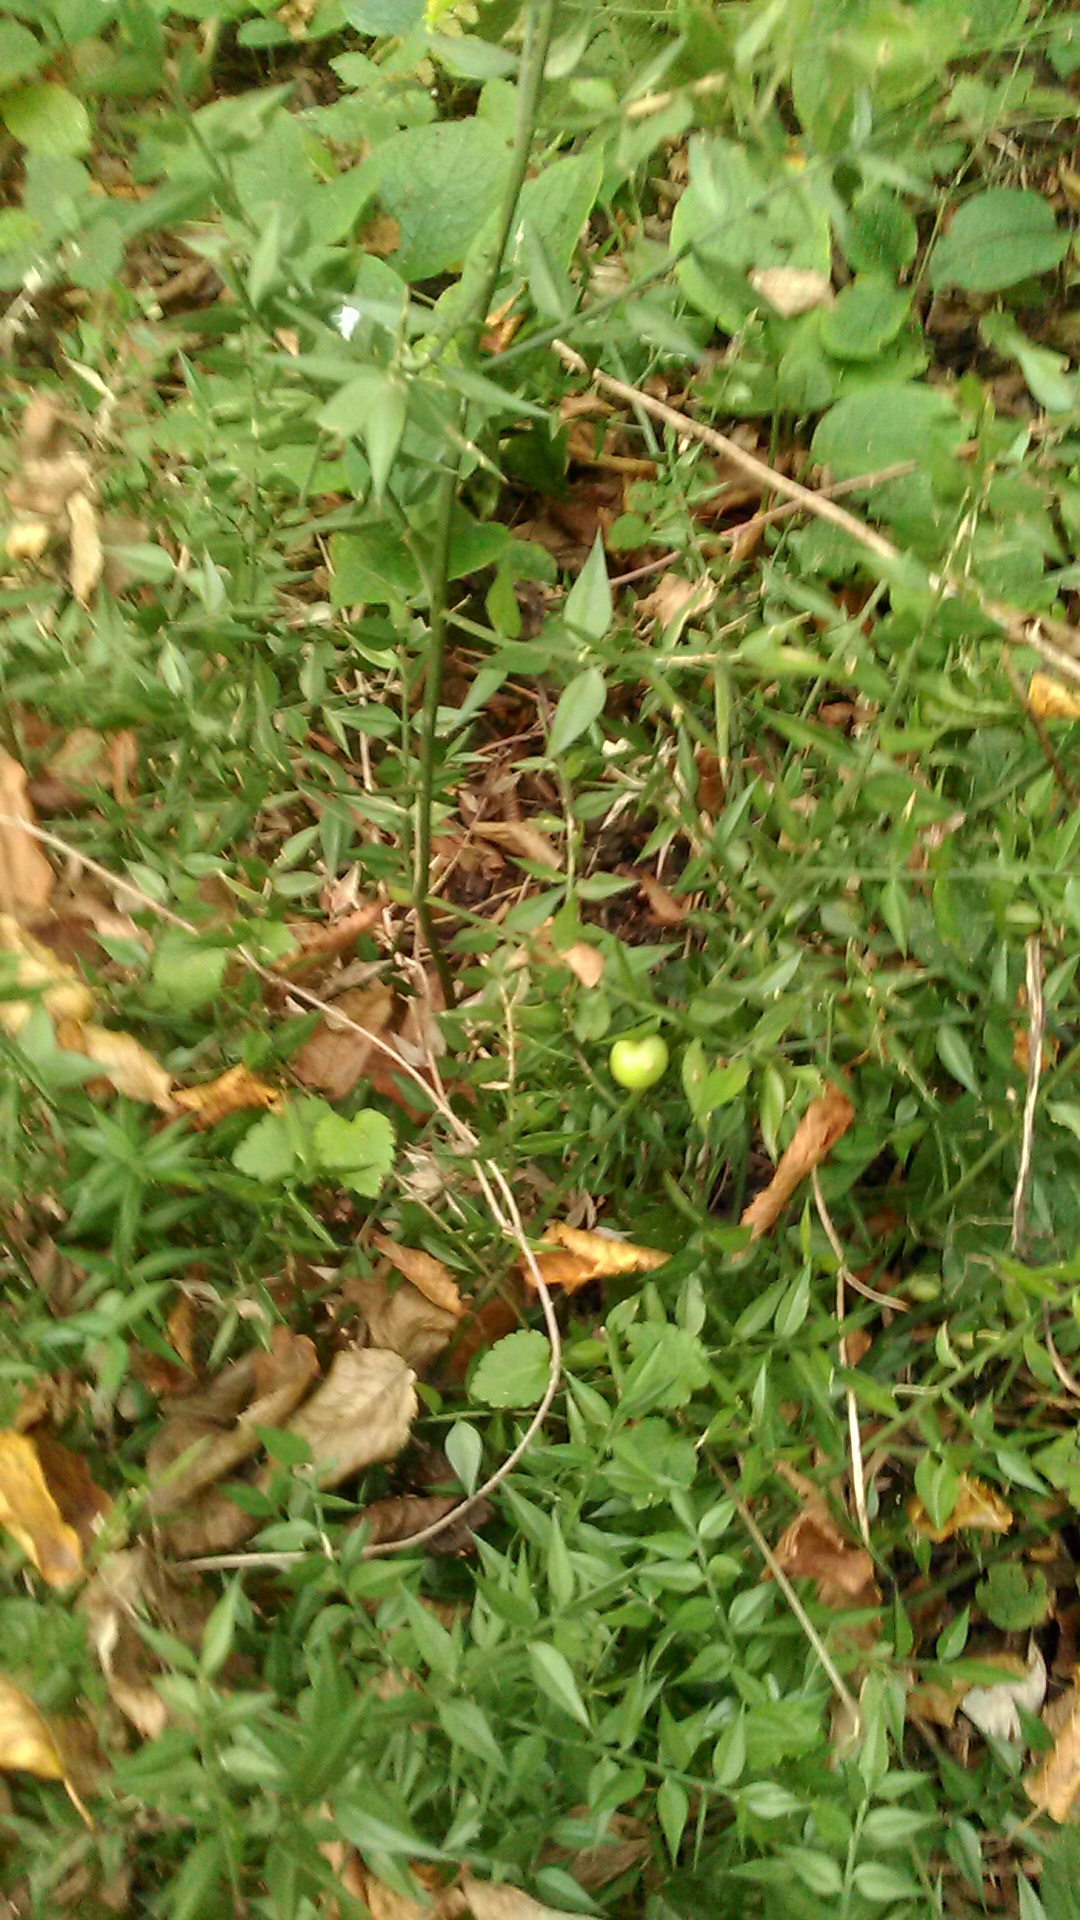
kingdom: Plantae
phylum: Tracheophyta
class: Liliopsida
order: Asparagales
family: Asparagaceae
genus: Ruscus
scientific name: Ruscus aculeatus
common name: Butcher's-broom
